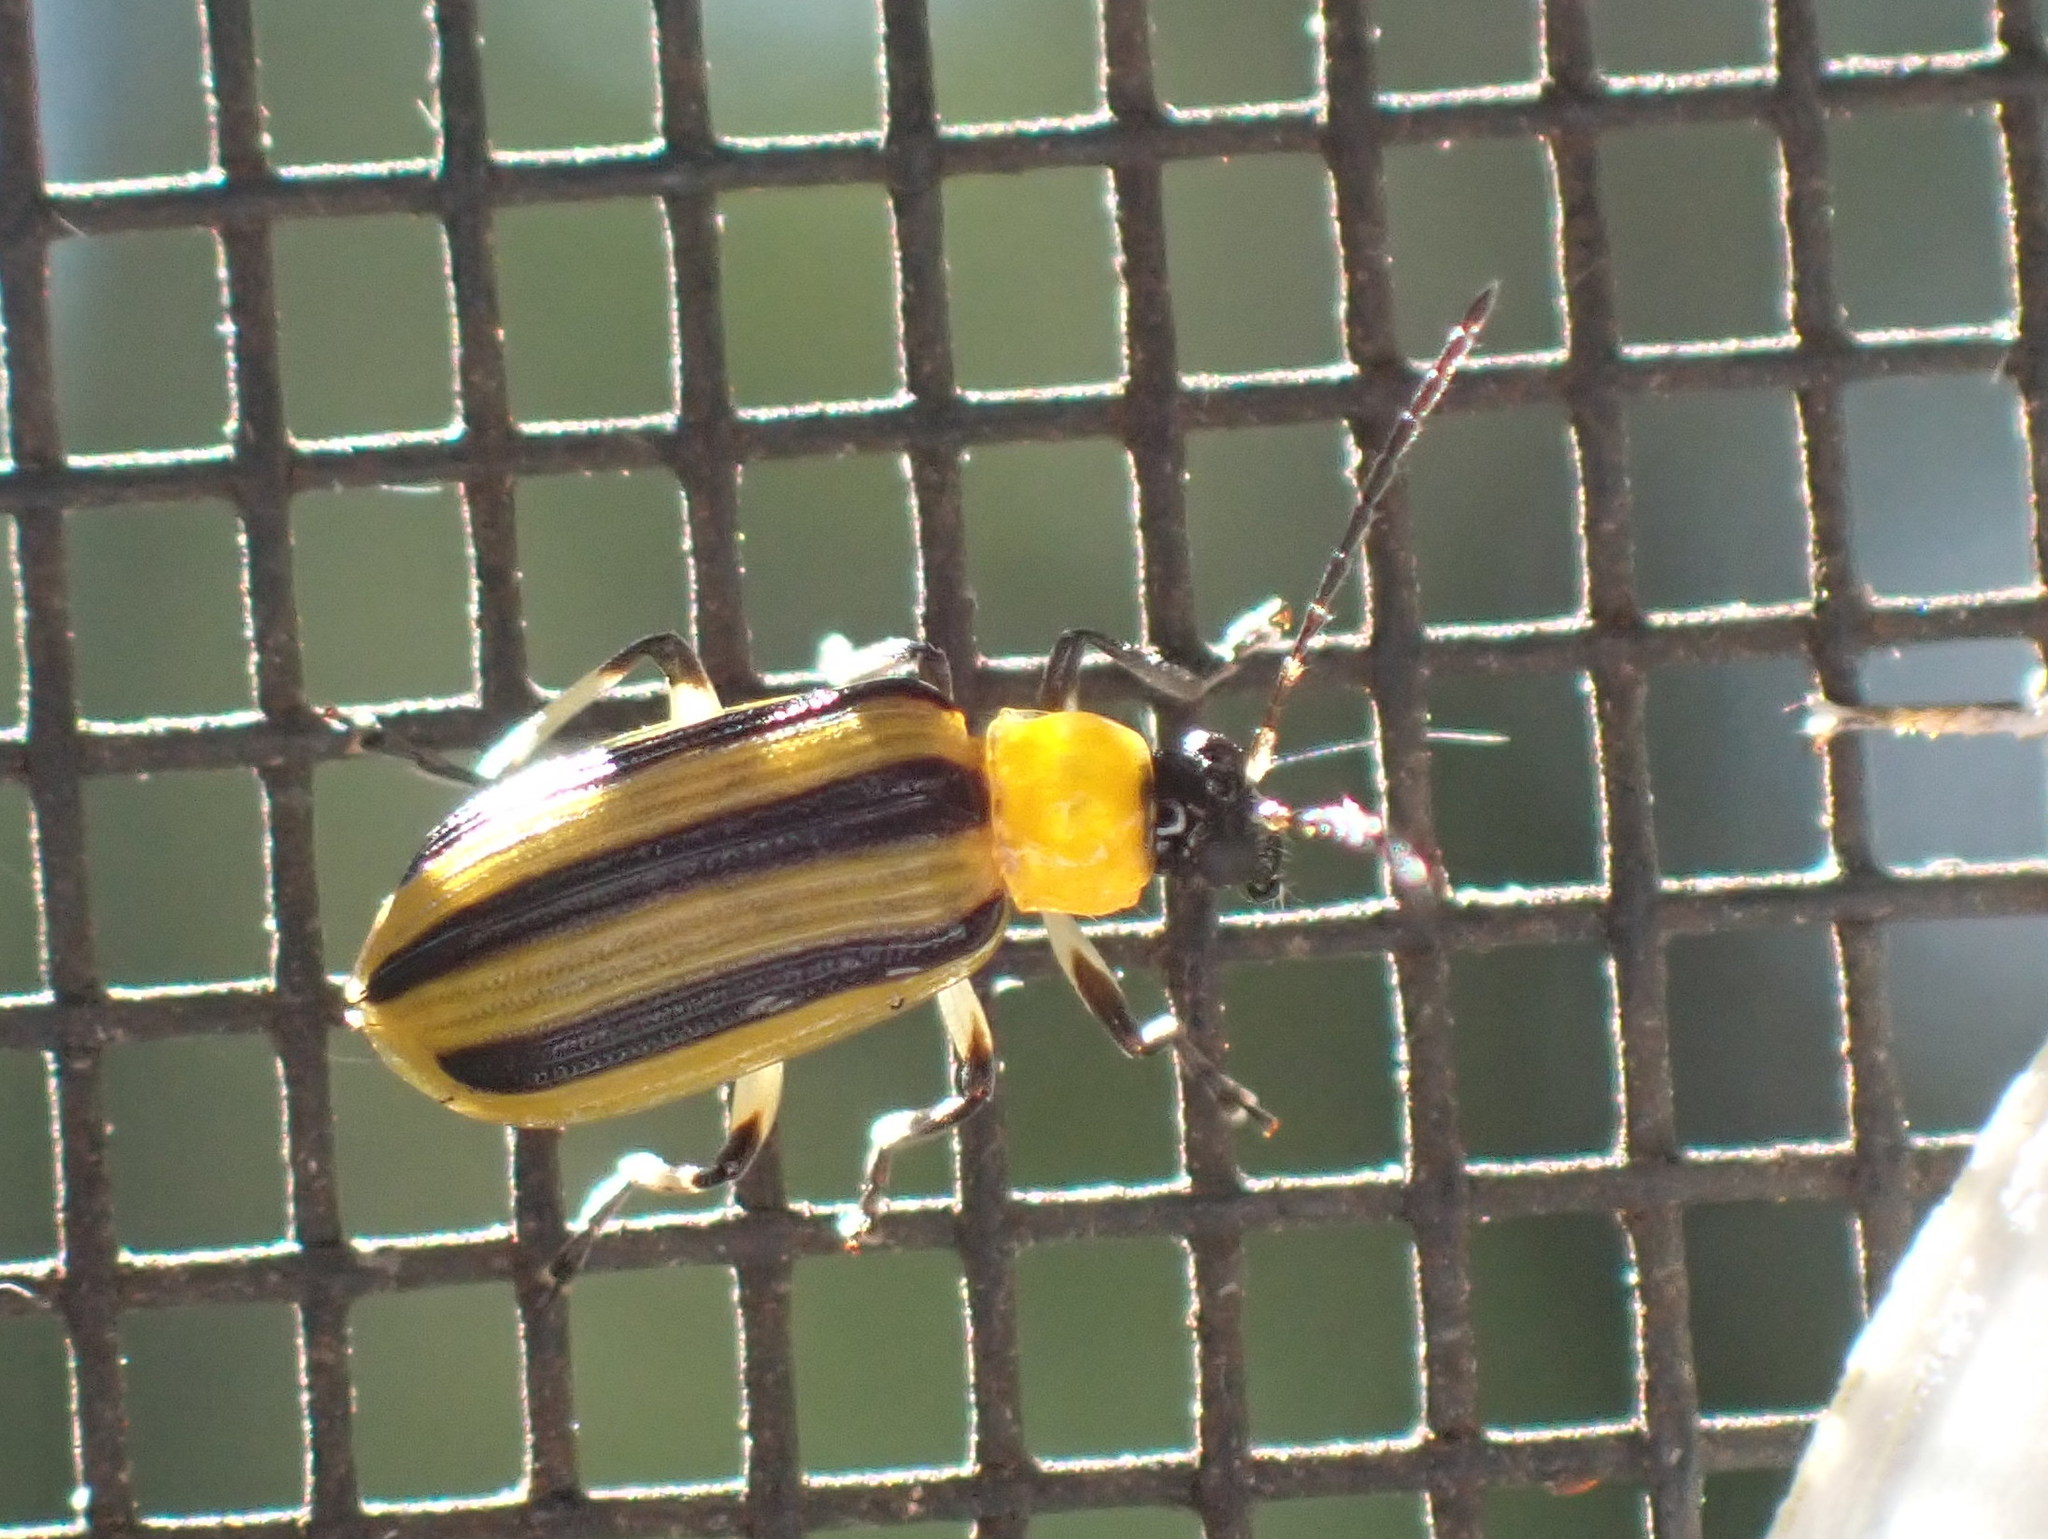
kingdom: Animalia
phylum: Arthropoda
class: Insecta
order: Coleoptera
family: Chrysomelidae
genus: Acalymma
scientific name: Acalymma vittatum
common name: Striped cucumber beetle
